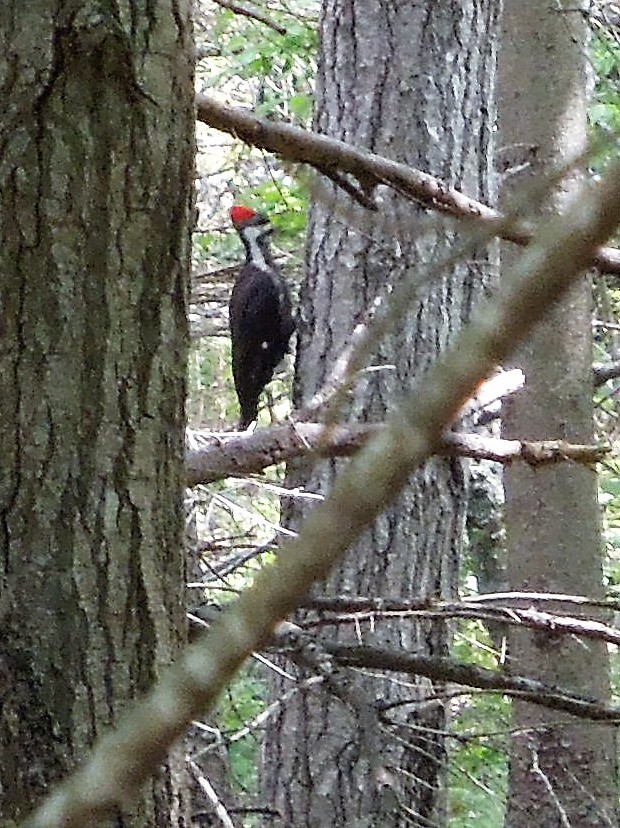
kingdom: Animalia
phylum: Chordata
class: Aves
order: Piciformes
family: Picidae
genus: Dryocopus
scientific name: Dryocopus pileatus
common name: Pileated woodpecker
